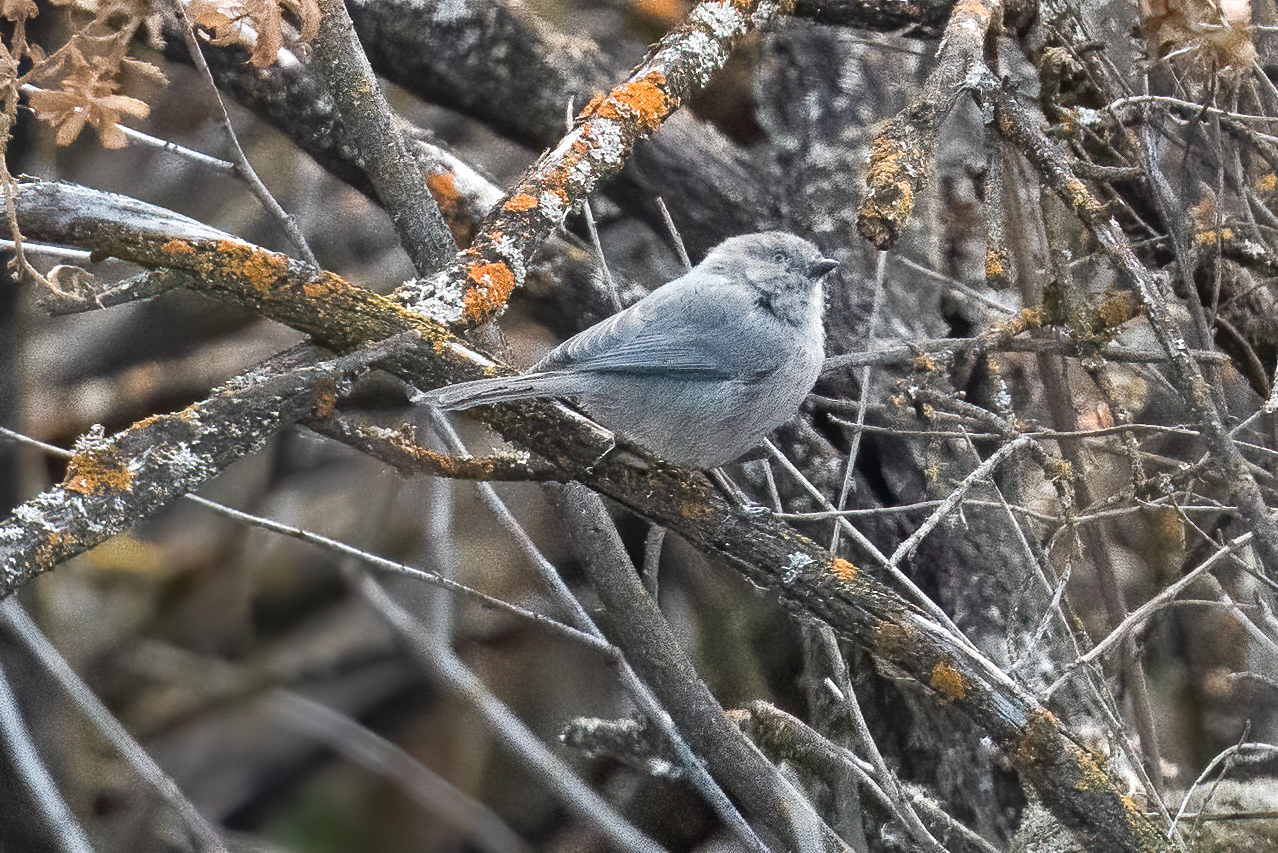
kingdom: Animalia
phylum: Chordata
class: Aves
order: Passeriformes
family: Aegithalidae
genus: Psaltriparus
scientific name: Psaltriparus minimus
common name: American bushtit
